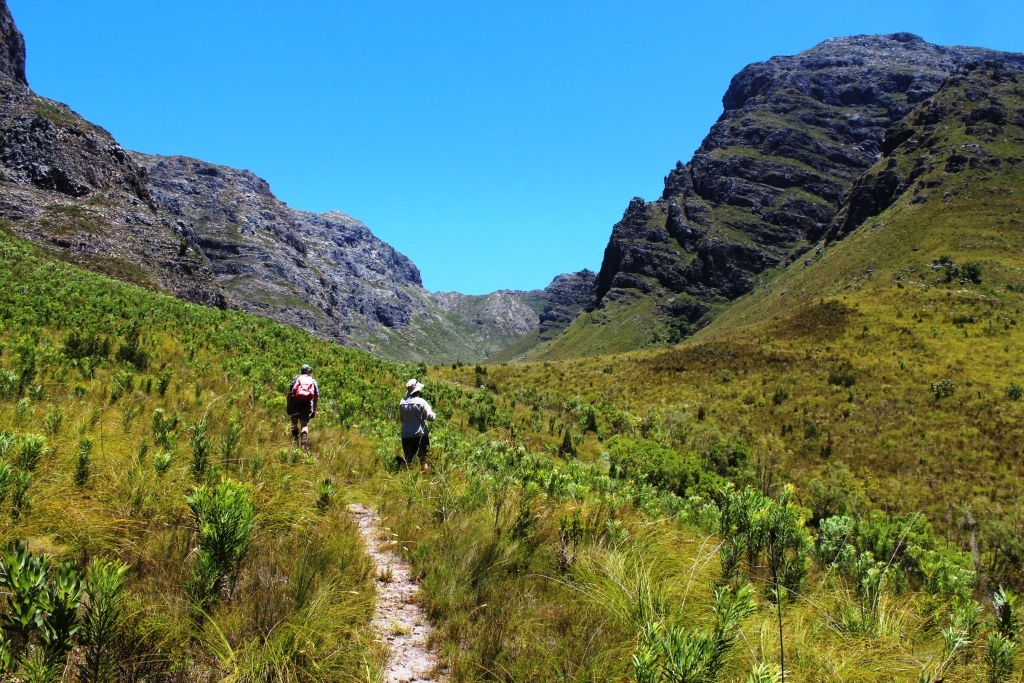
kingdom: Plantae
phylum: Tracheophyta
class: Magnoliopsida
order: Proteales
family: Proteaceae
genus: Protea
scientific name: Protea repens
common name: Sugarbush
